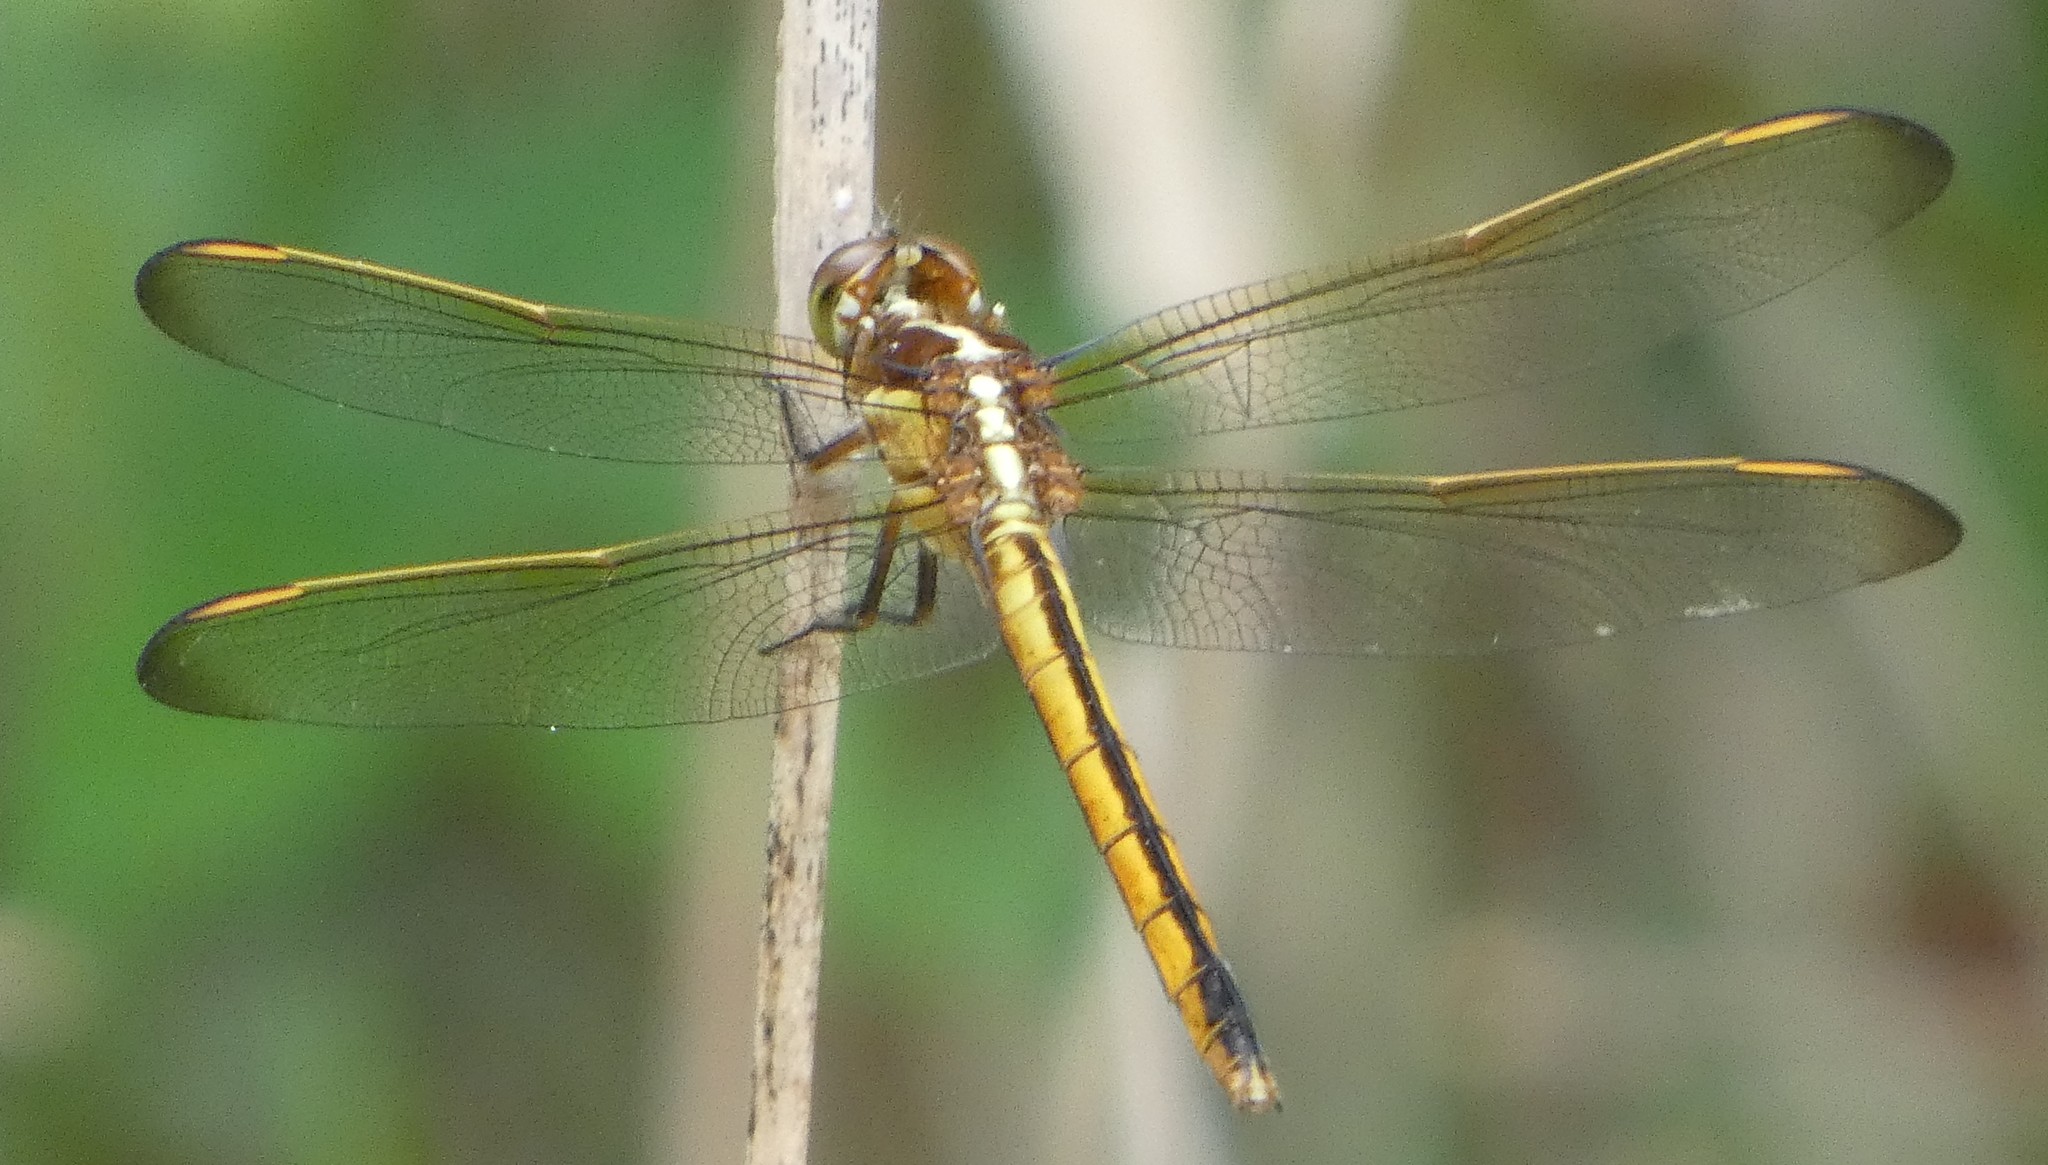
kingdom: Animalia
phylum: Arthropoda
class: Insecta
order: Odonata
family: Libellulidae
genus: Libellula
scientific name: Libellula auripennis
